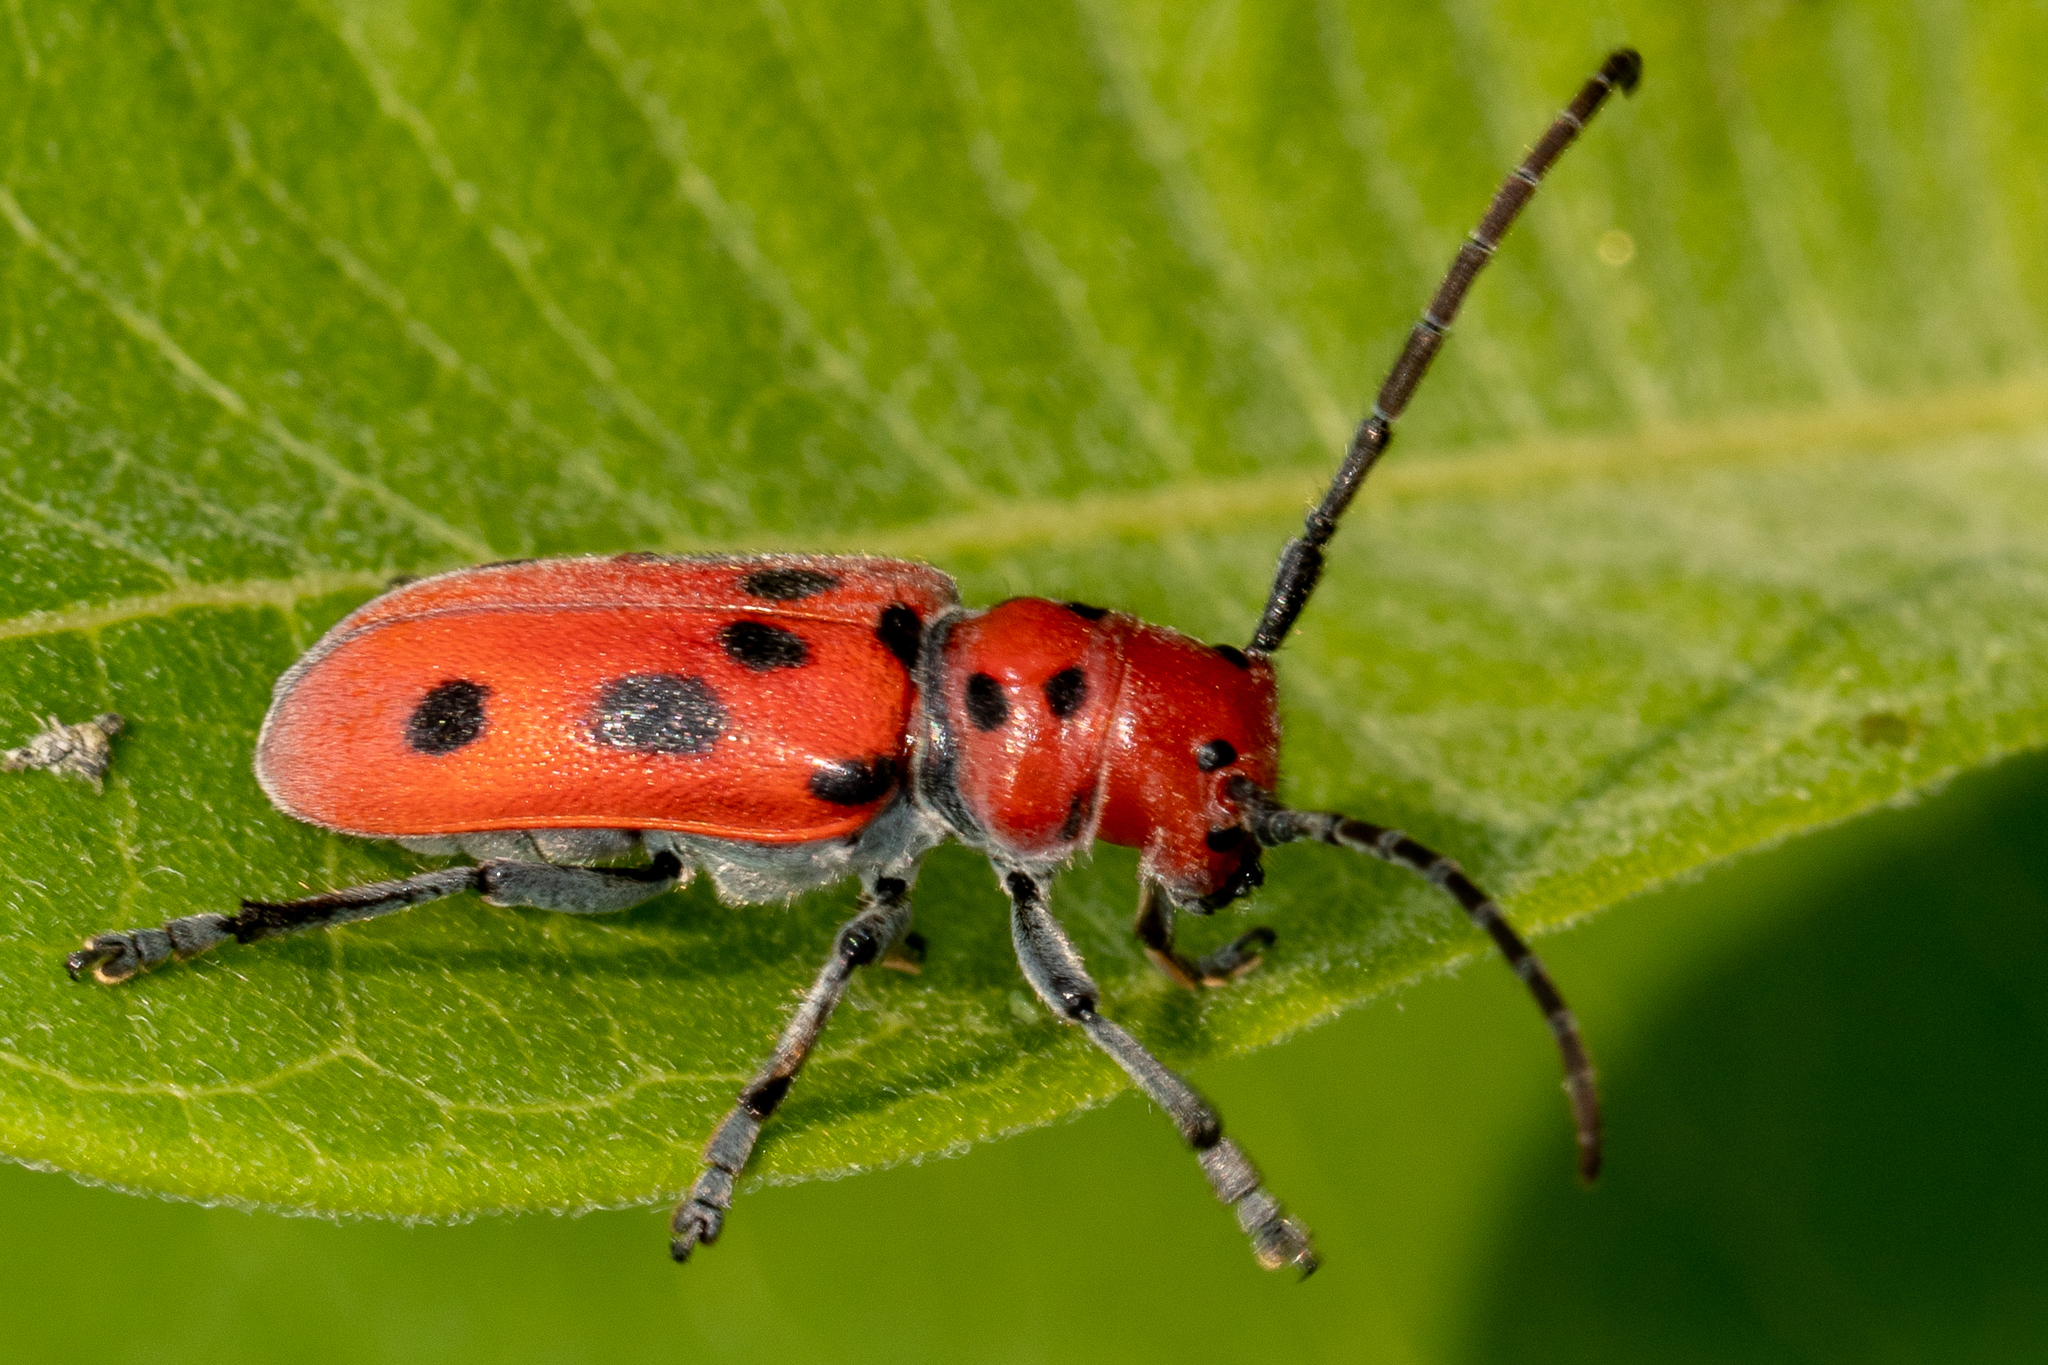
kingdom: Animalia
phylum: Arthropoda
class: Insecta
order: Coleoptera
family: Cerambycidae
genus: Tetraopes
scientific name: Tetraopes tetrophthalmus
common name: Red milkweed beetle
